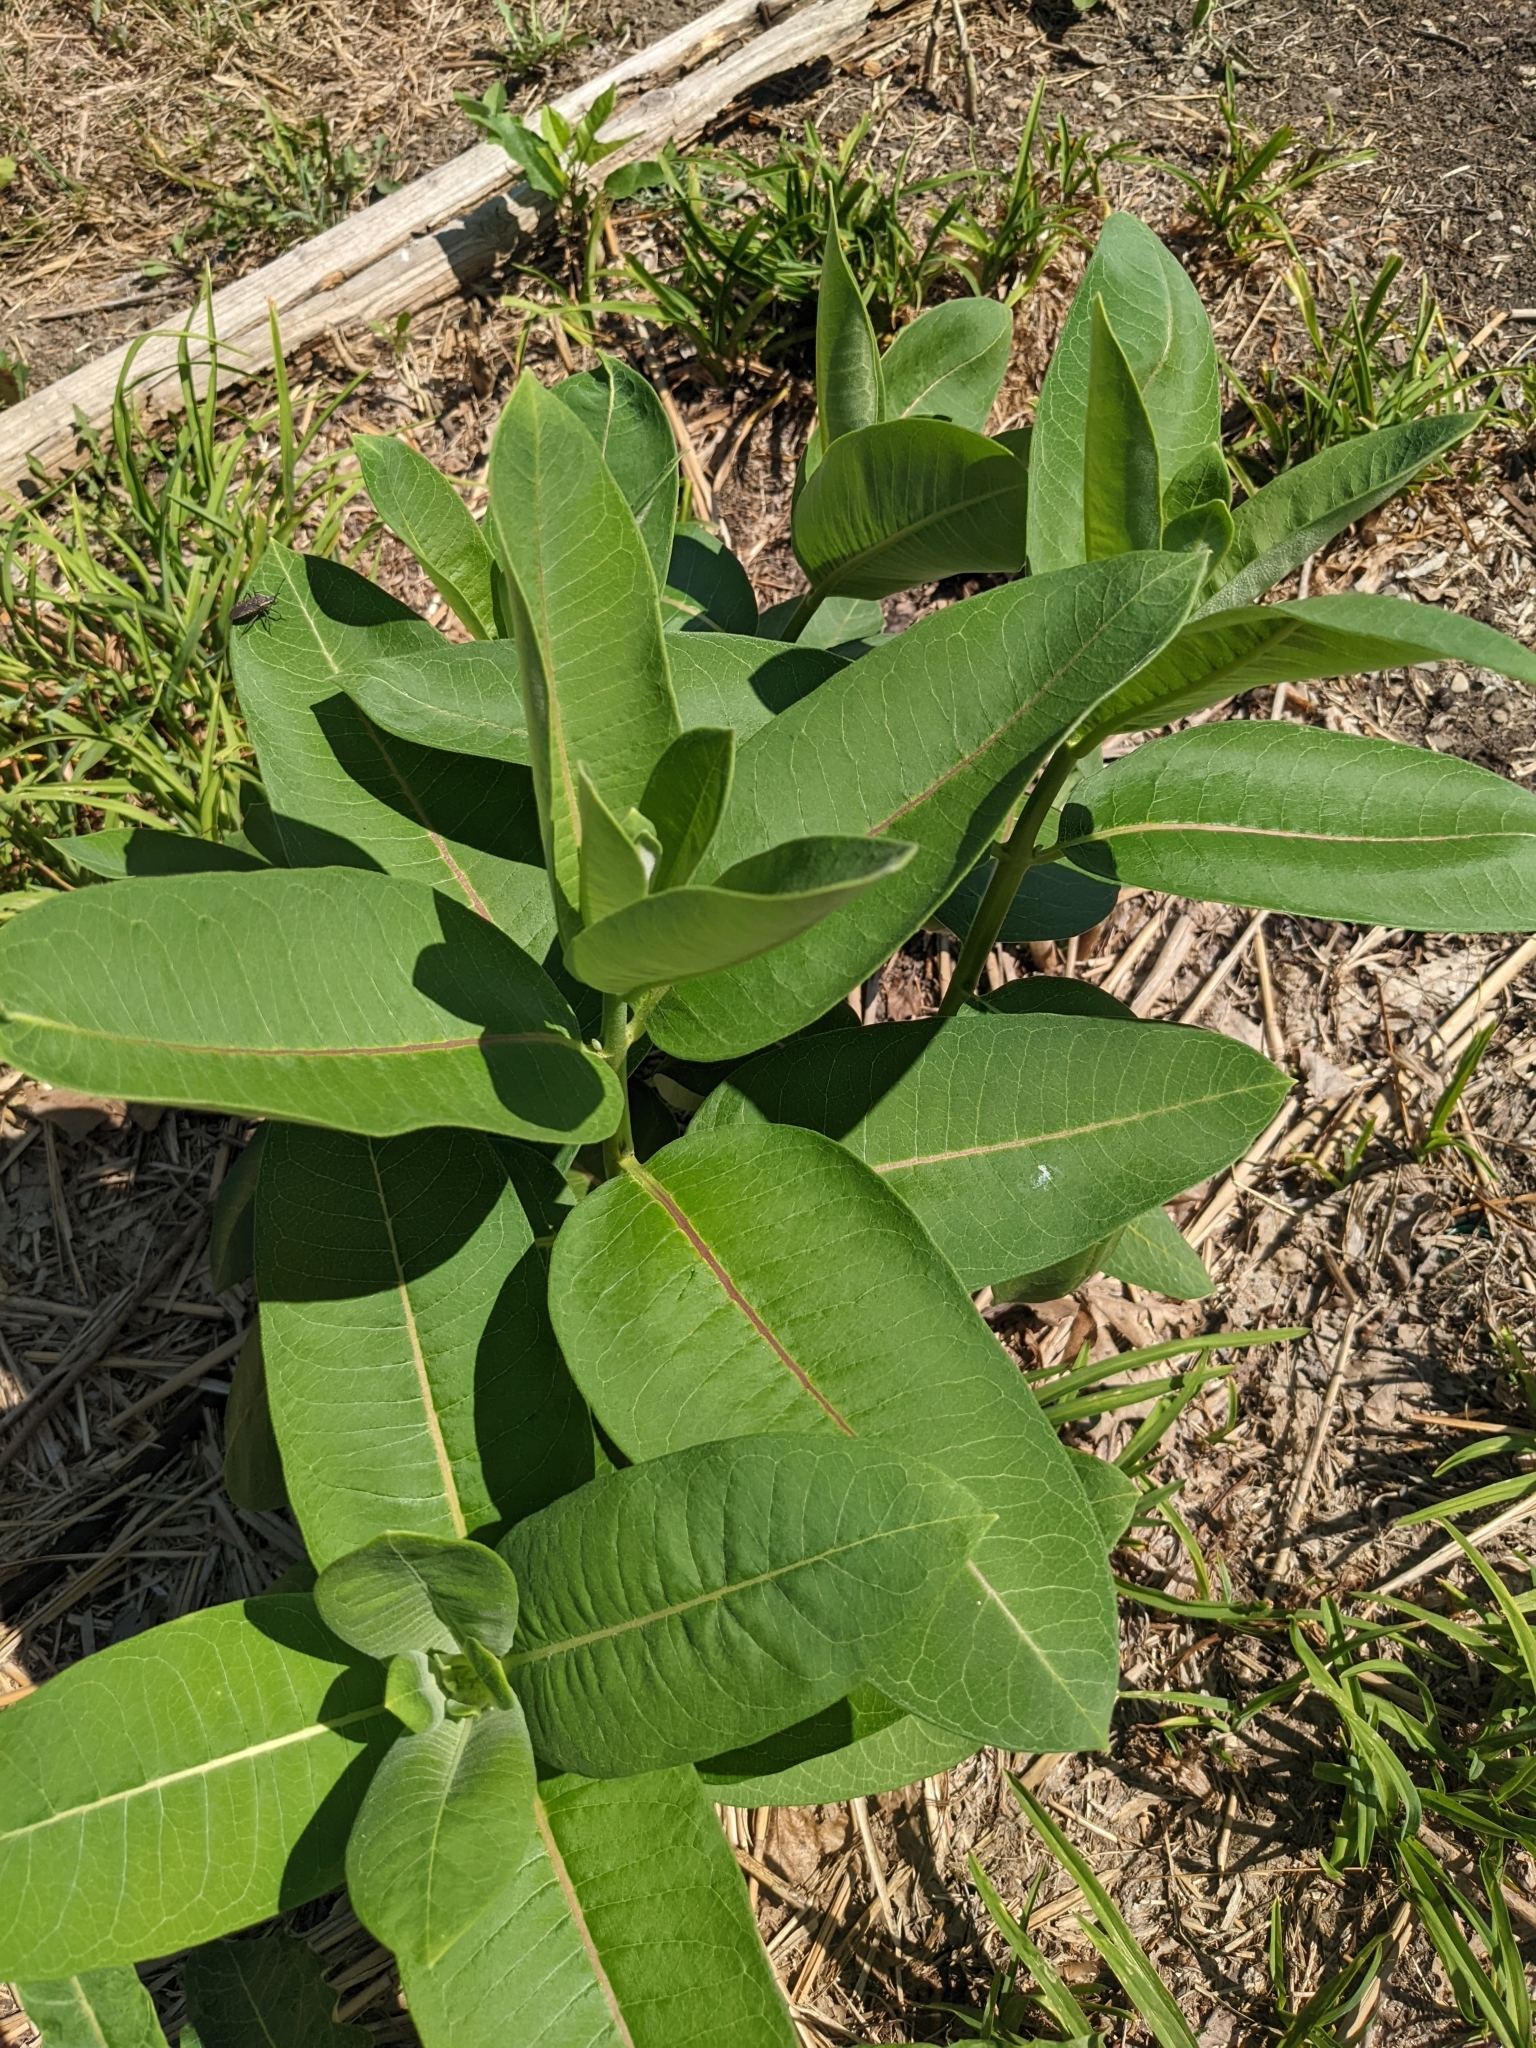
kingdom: Plantae
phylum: Tracheophyta
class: Magnoliopsida
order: Gentianales
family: Apocynaceae
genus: Asclepias
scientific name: Asclepias syriaca
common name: Common milkweed
